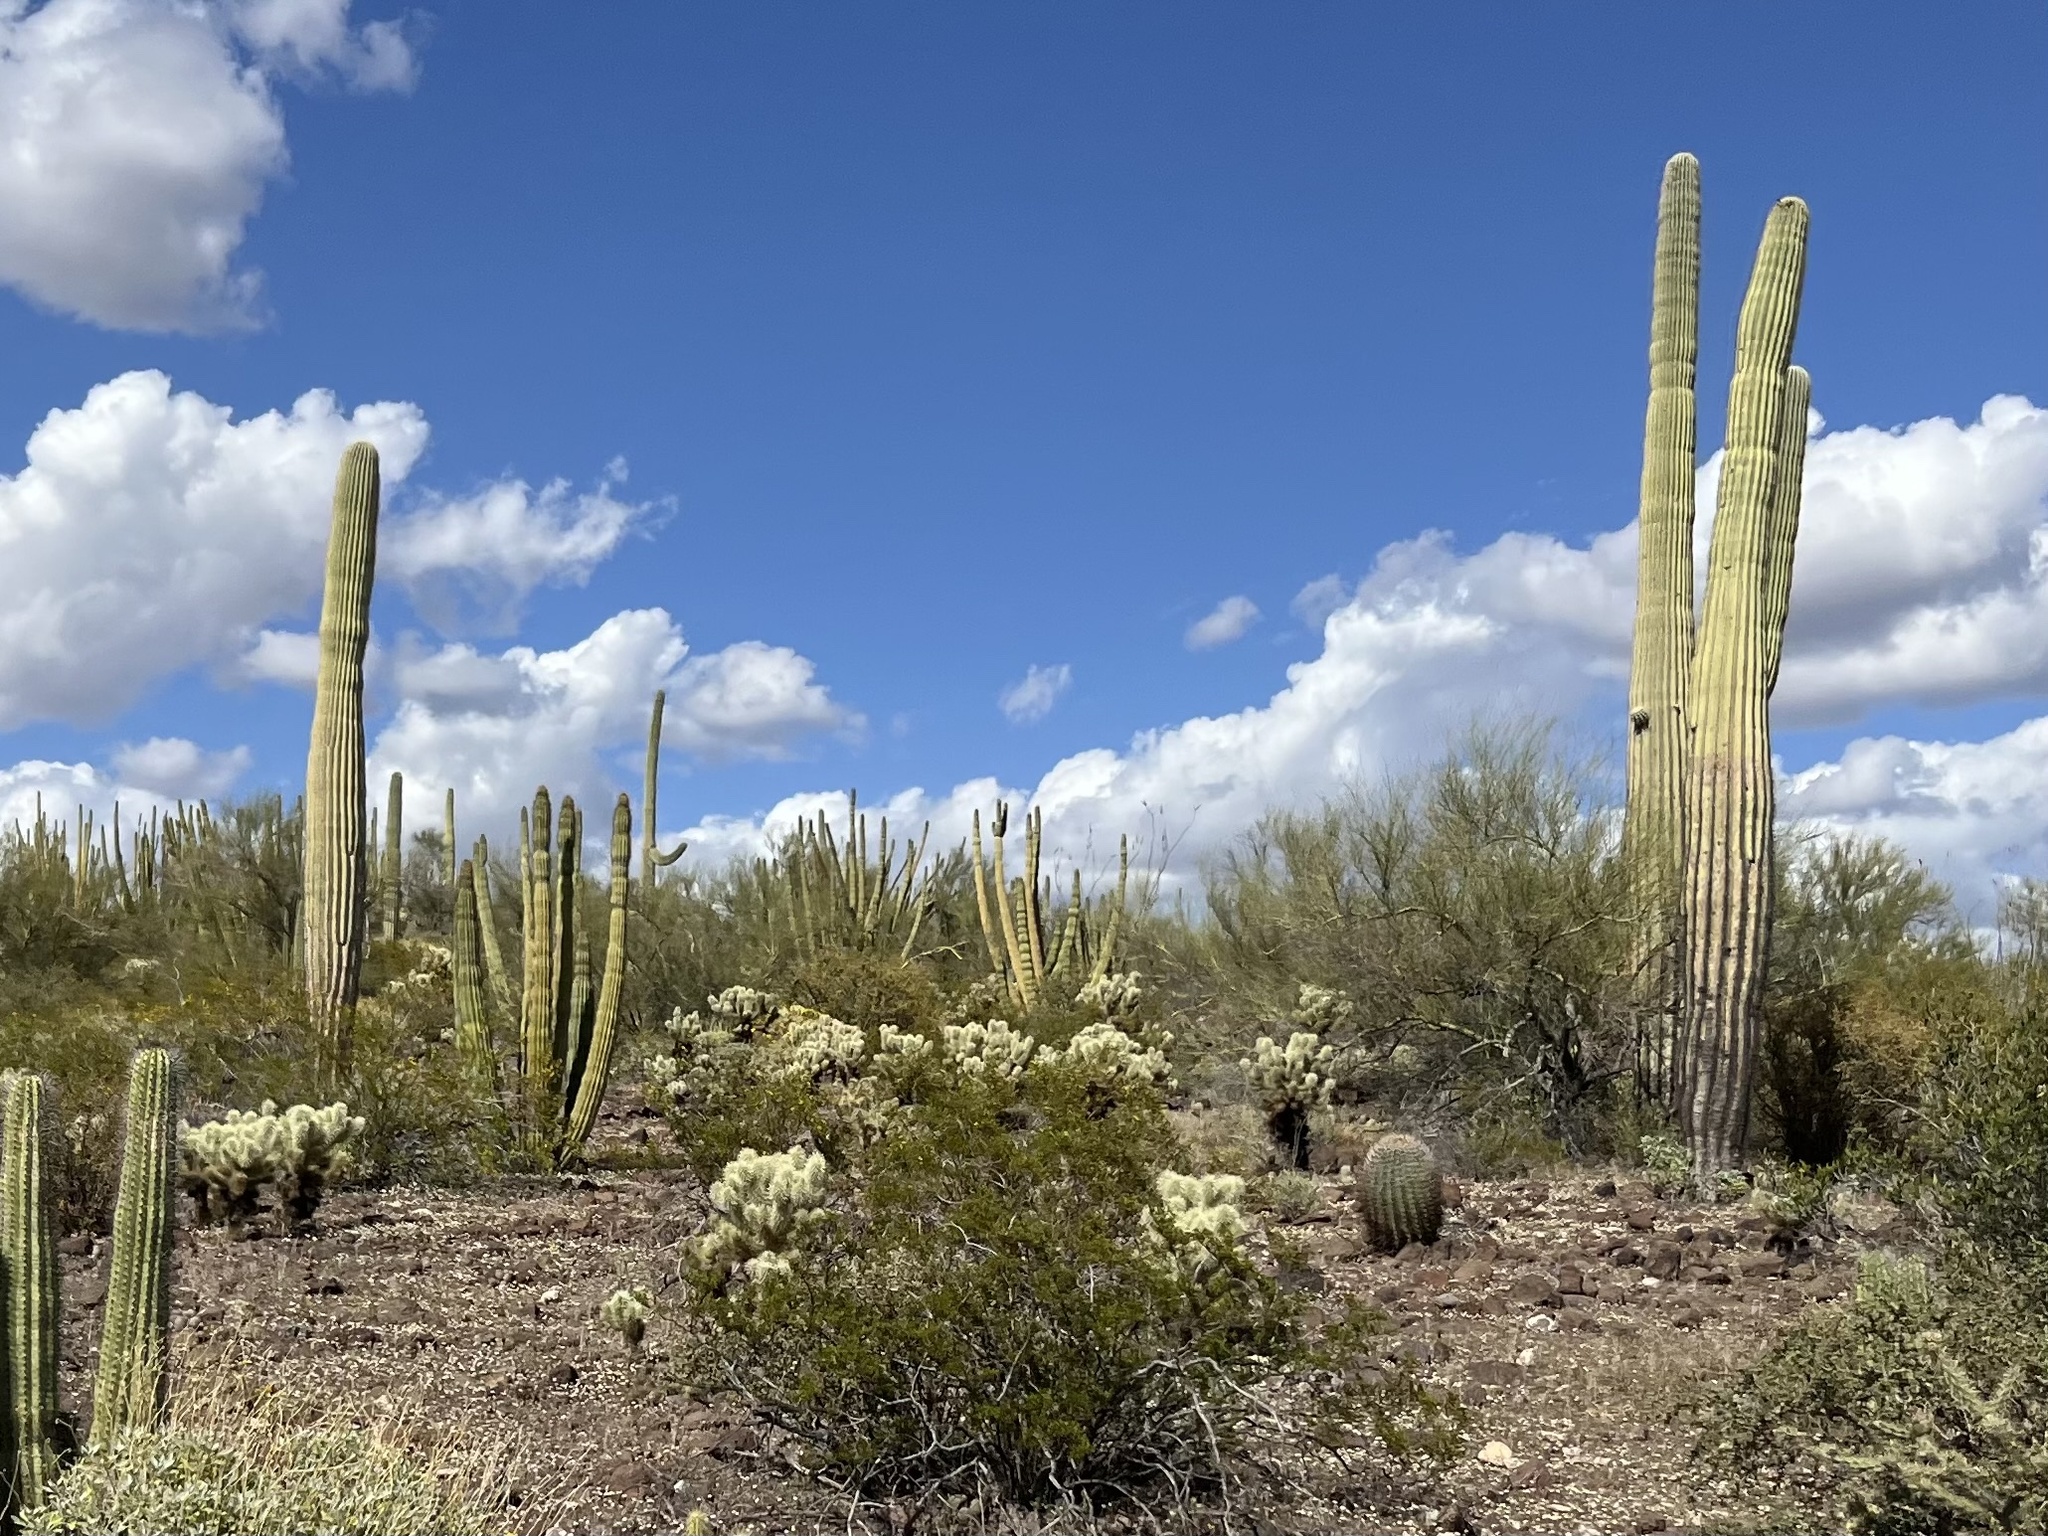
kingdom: Plantae
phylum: Tracheophyta
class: Magnoliopsida
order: Caryophyllales
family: Cactaceae
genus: Carnegiea
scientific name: Carnegiea gigantea
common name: Saguaro
